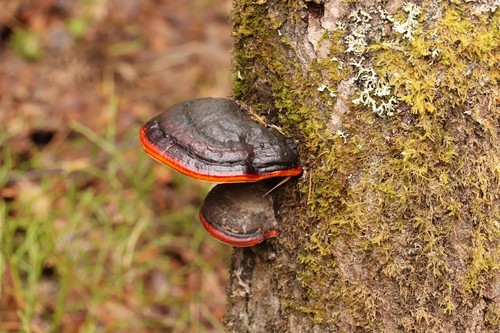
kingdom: Fungi
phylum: Basidiomycota
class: Agaricomycetes
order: Polyporales
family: Fomitopsidaceae
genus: Fomitopsis
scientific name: Fomitopsis pinicola
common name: Red-belted bracket
